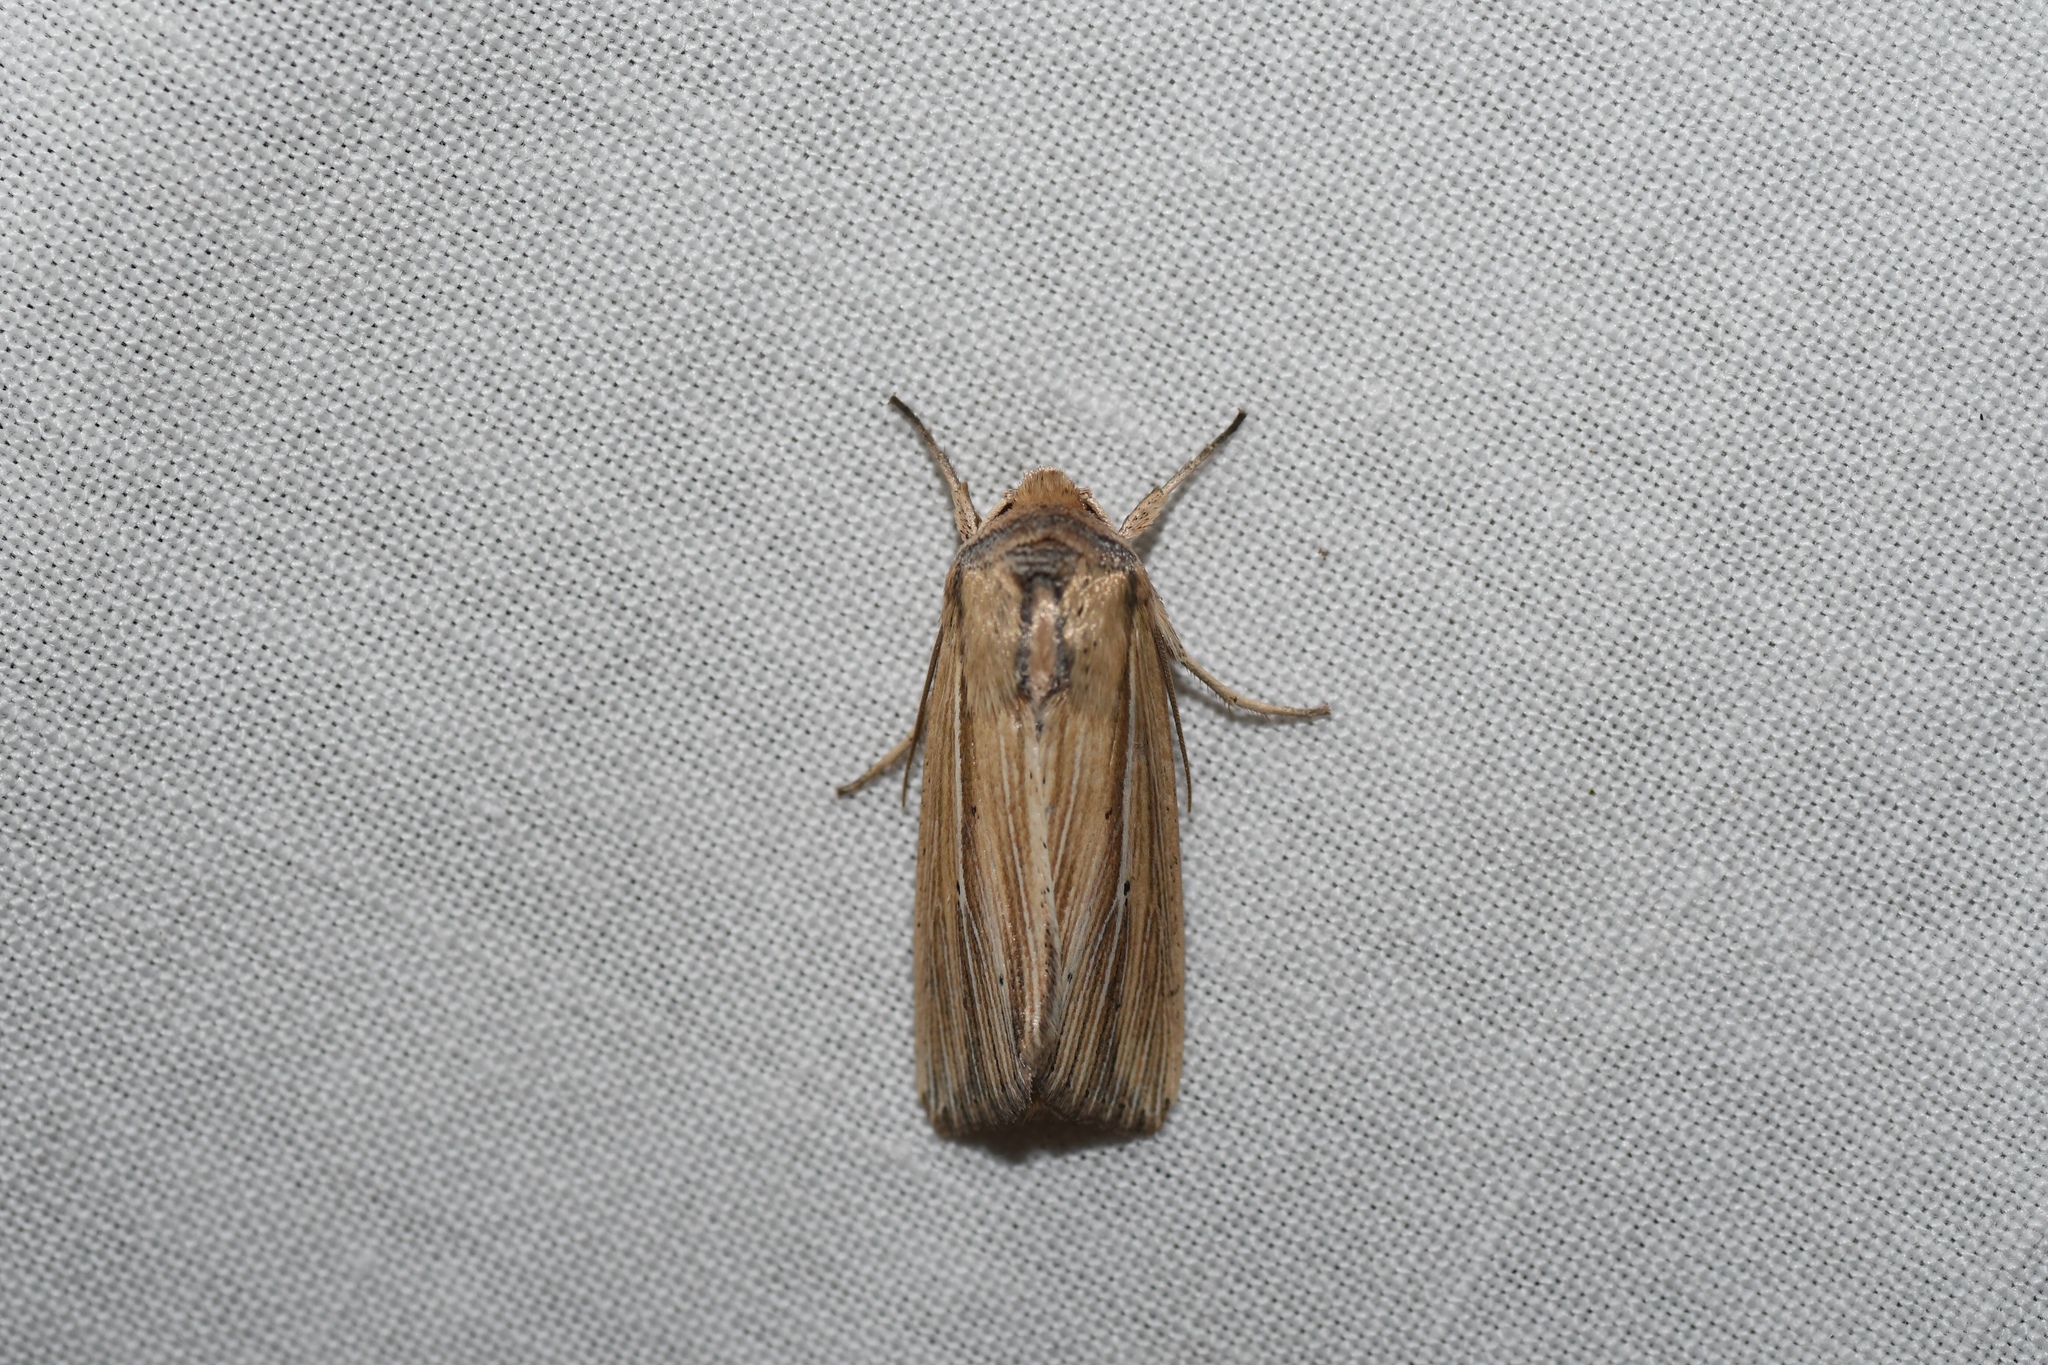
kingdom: Animalia
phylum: Arthropoda
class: Insecta
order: Lepidoptera
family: Noctuidae
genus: Leucania
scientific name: Leucania multilinea
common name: Many-lined wainscot
